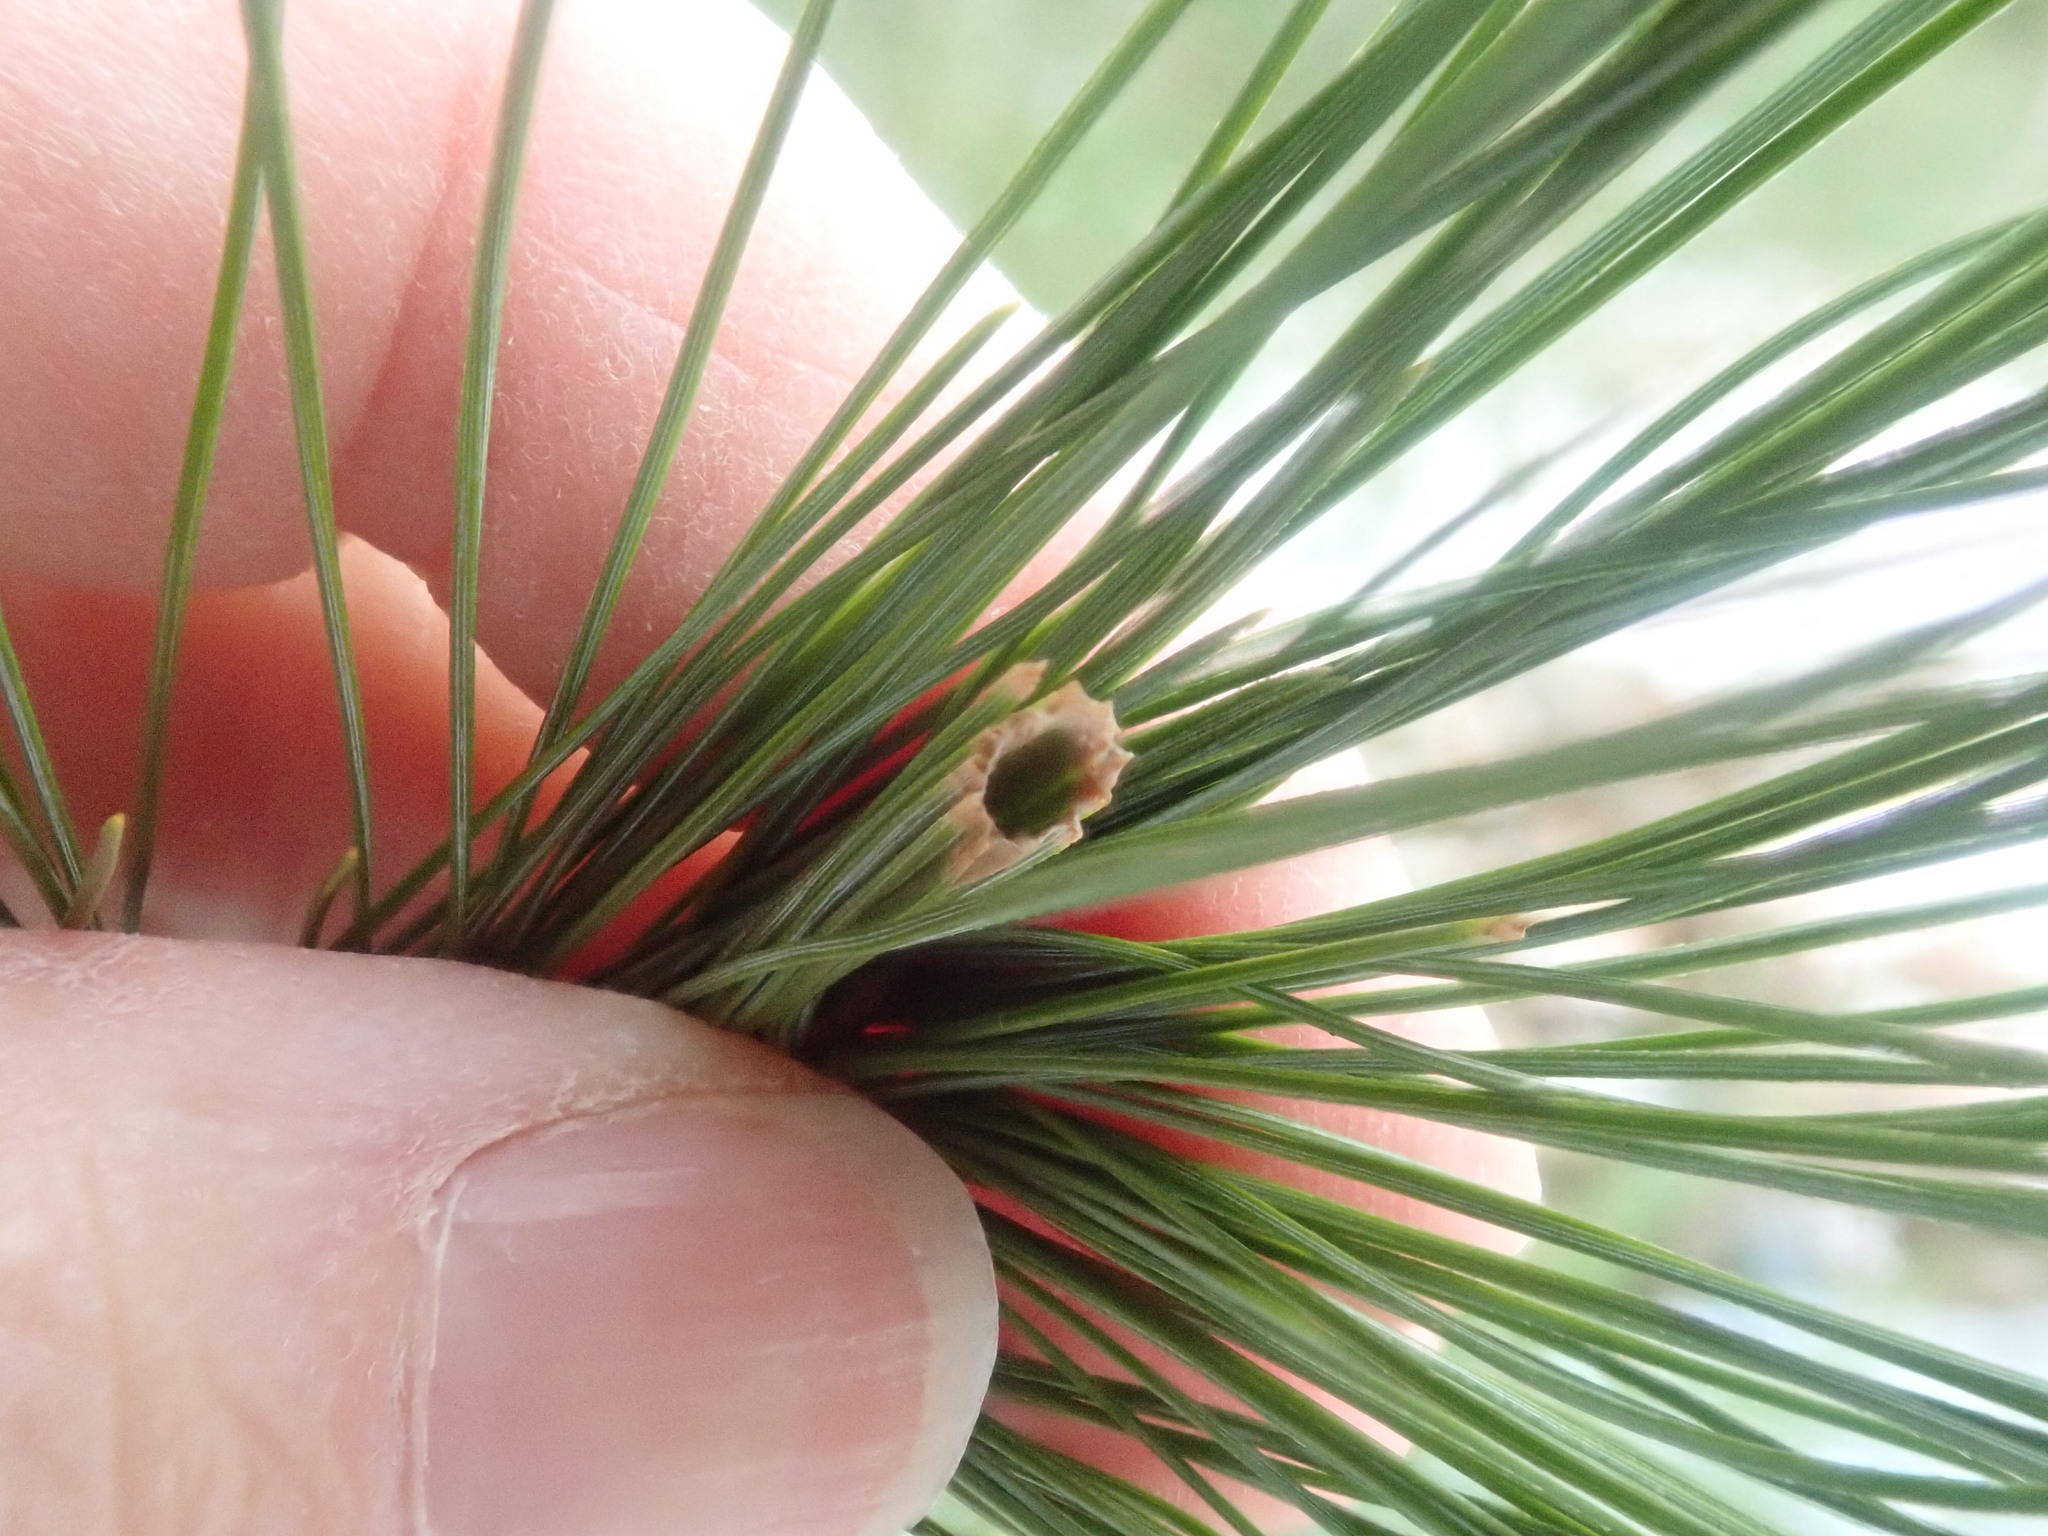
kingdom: Animalia
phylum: Arthropoda
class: Insecta
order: Lepidoptera
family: Tortricidae
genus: Argyrotaenia
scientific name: Argyrotaenia pinatubana
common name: Pine tube moth
